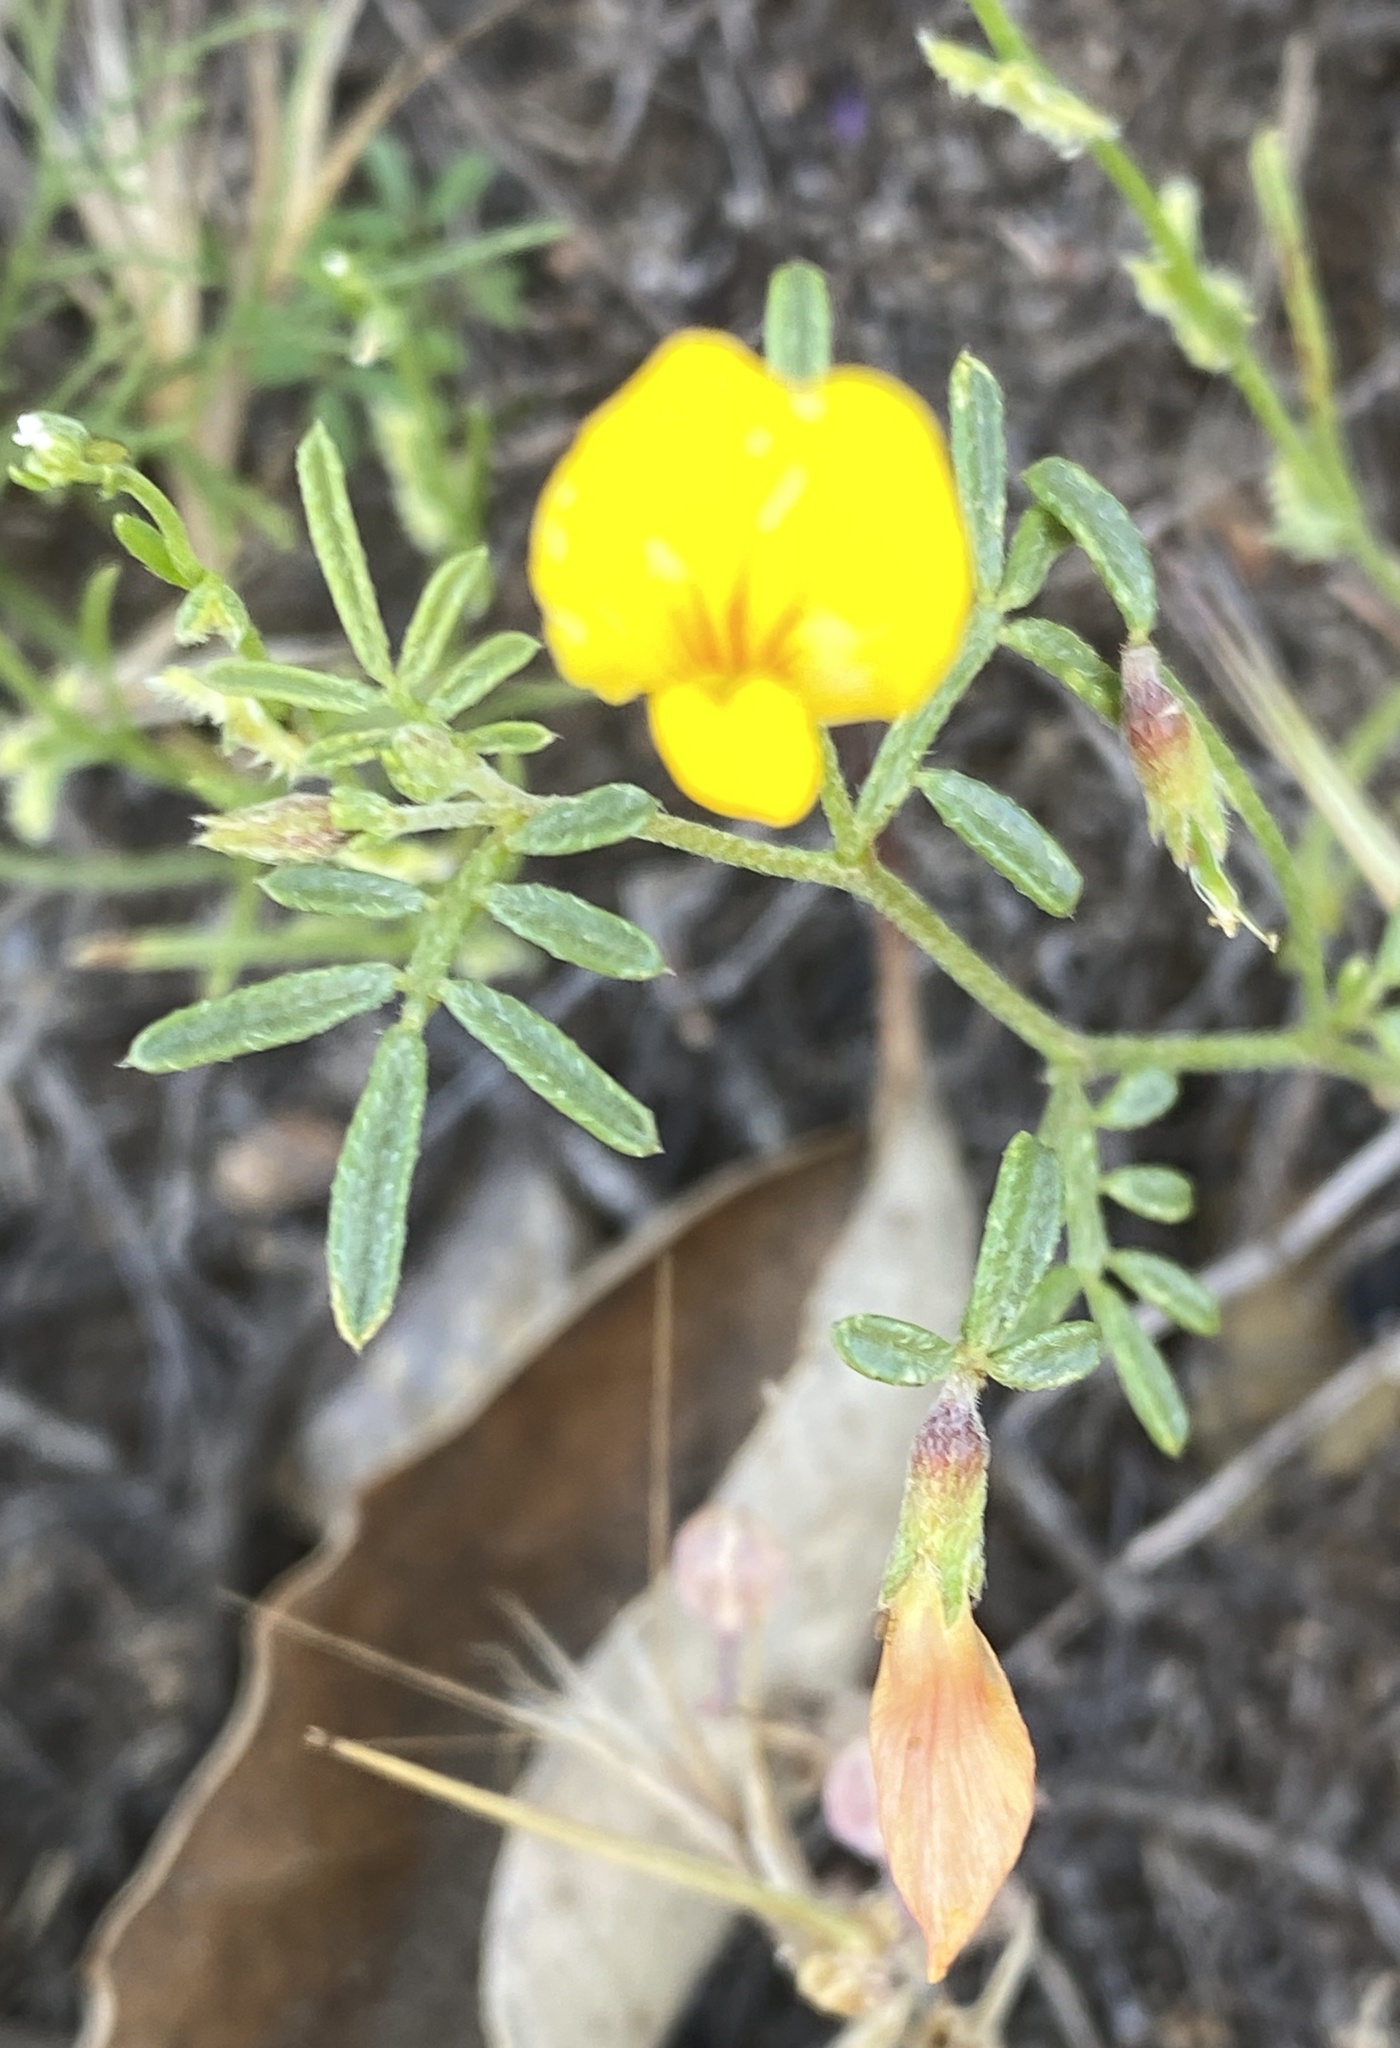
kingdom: Plantae
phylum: Tracheophyta
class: Magnoliopsida
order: Fabales
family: Fabaceae
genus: Acmispon
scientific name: Acmispon strigosus
